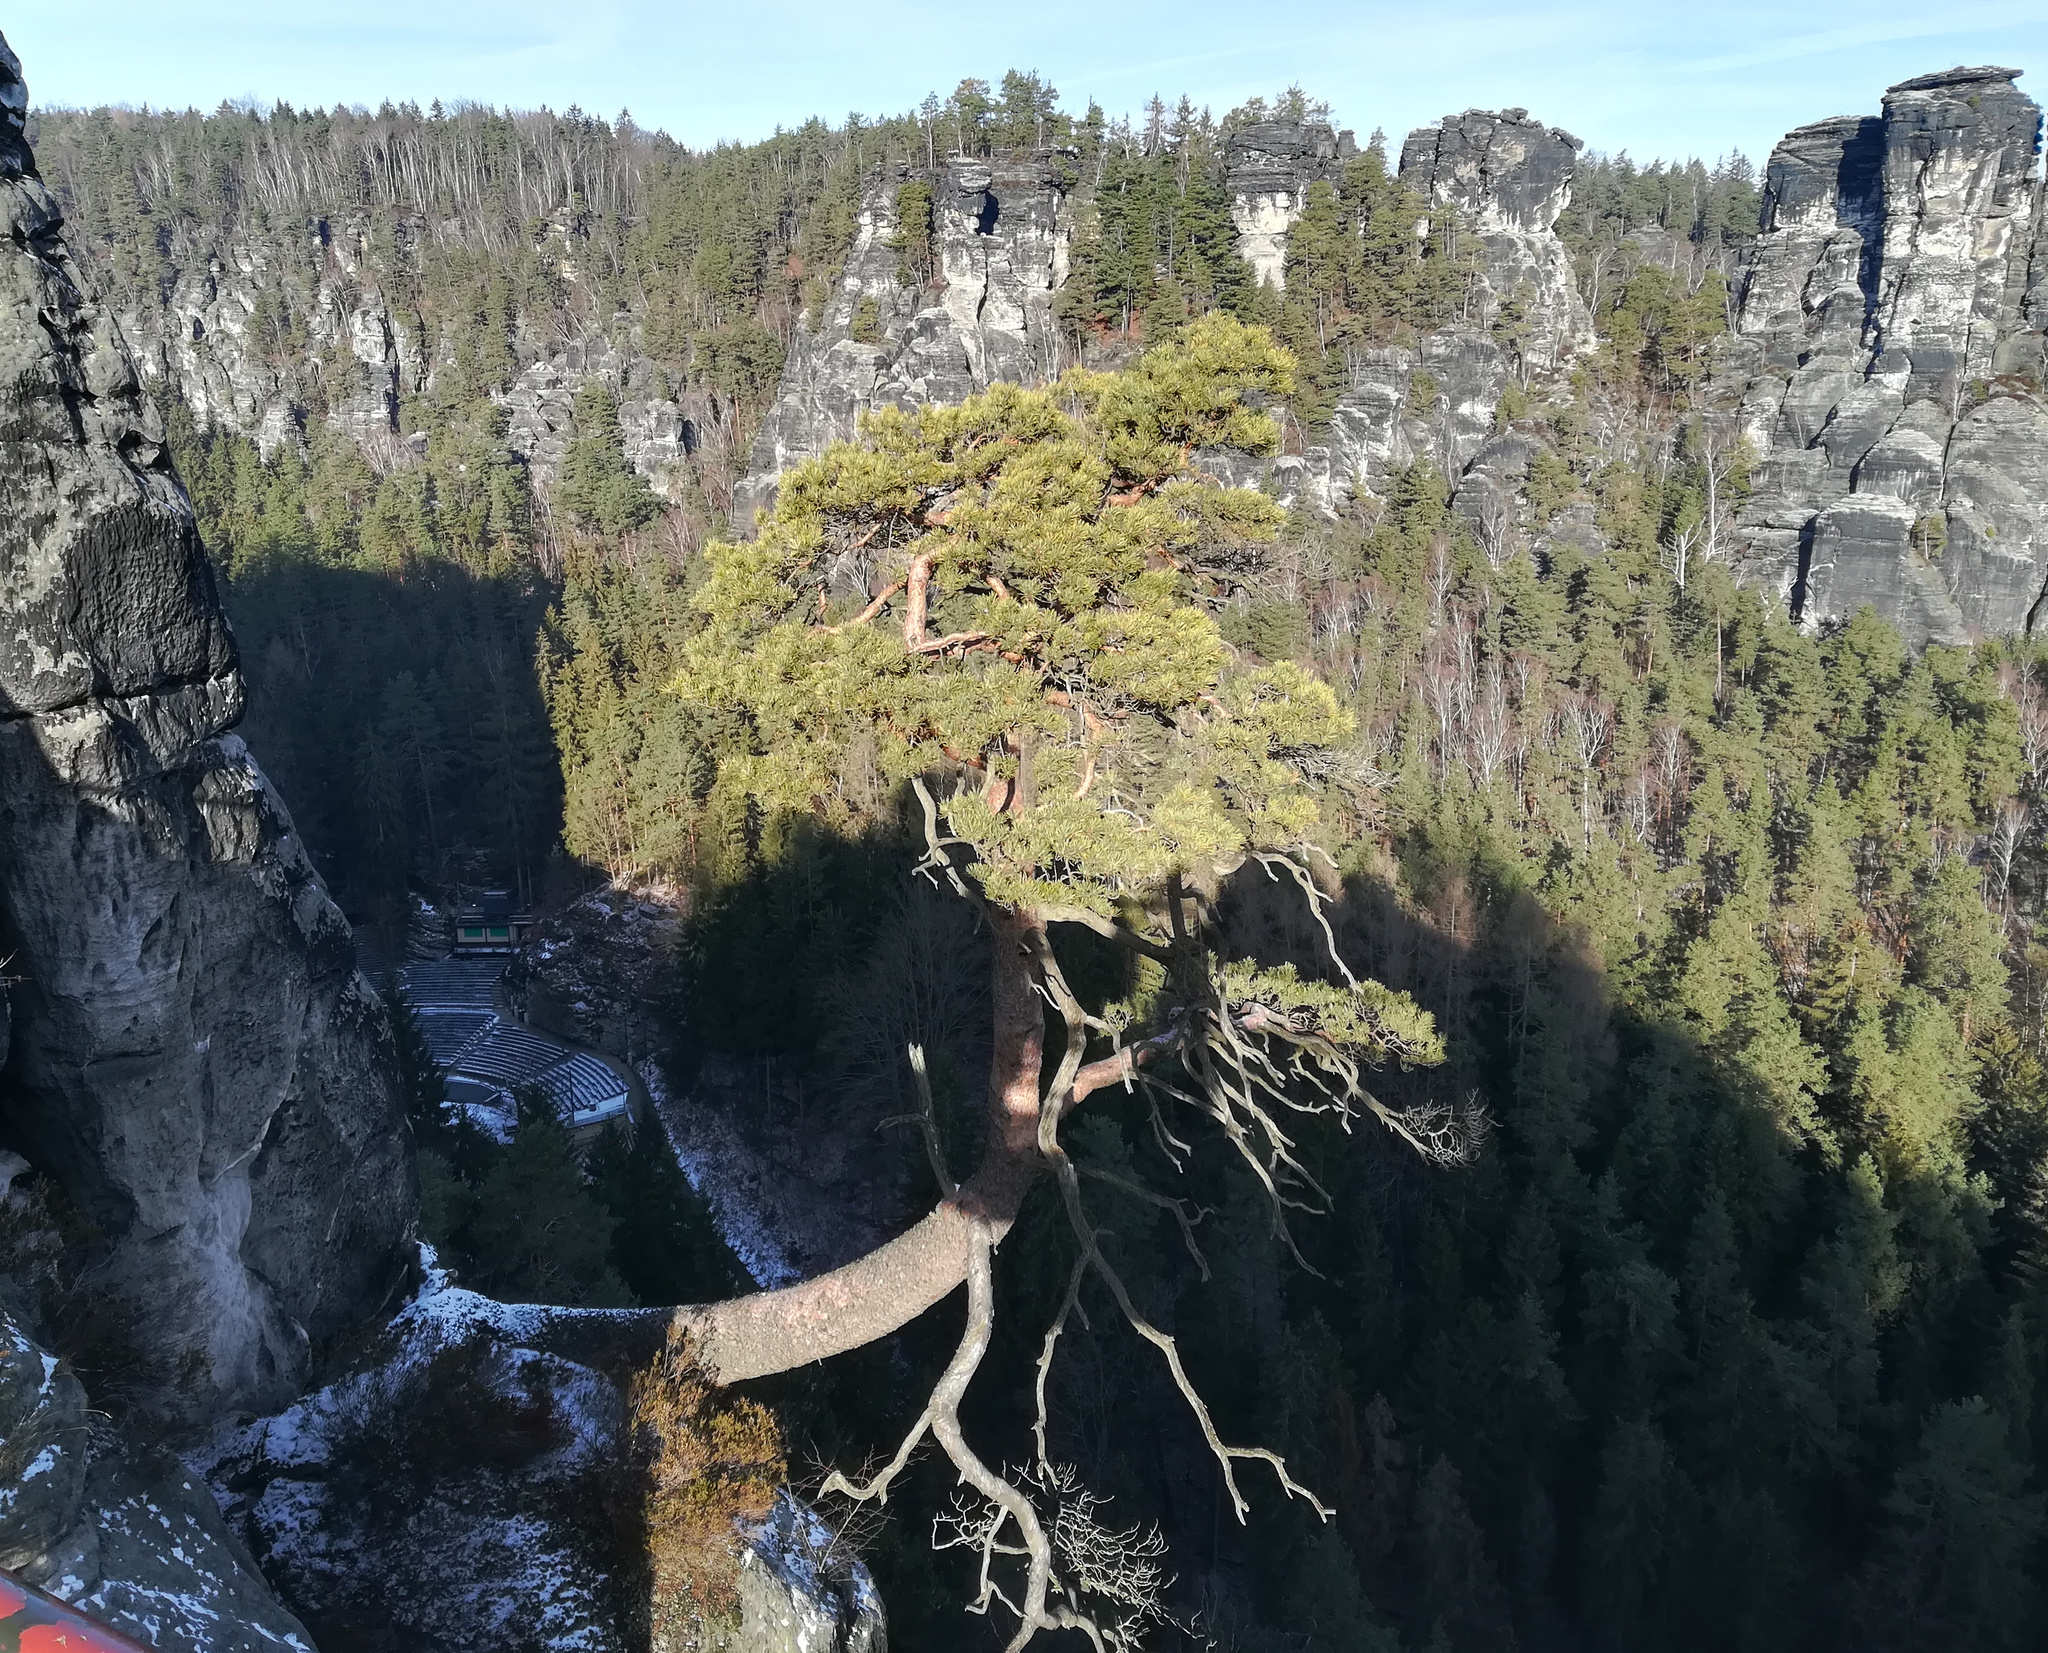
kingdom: Plantae
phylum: Tracheophyta
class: Pinopsida
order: Pinales
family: Pinaceae
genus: Pinus
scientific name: Pinus sylvestris
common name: Scots pine
